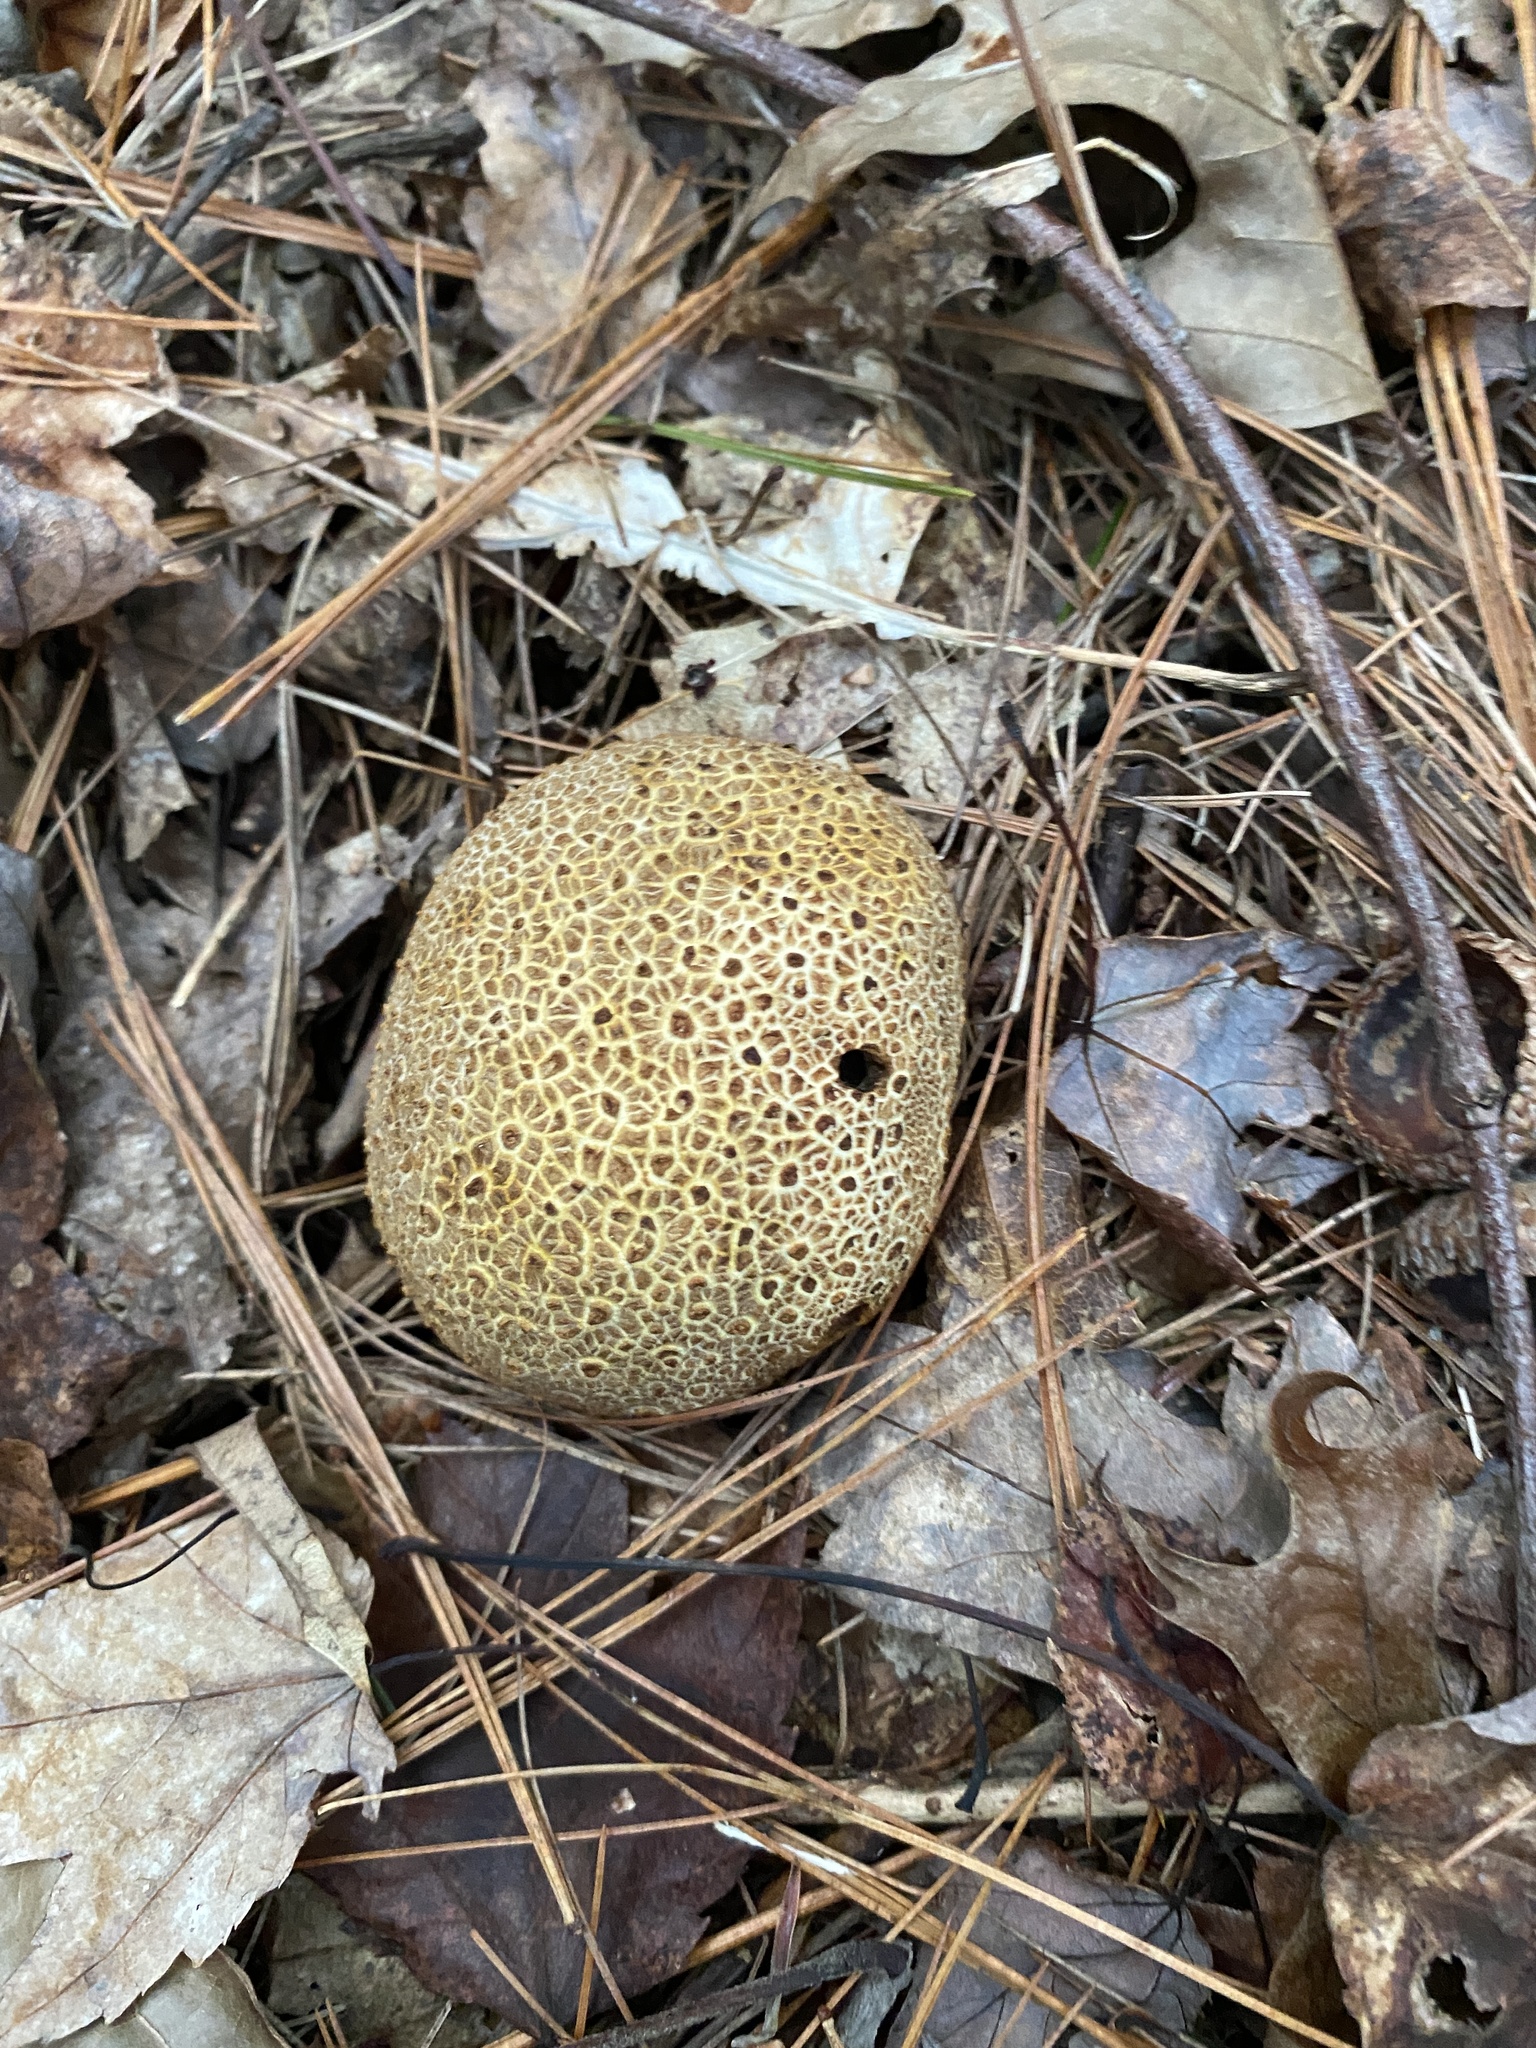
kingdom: Fungi
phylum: Basidiomycota
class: Agaricomycetes
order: Boletales
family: Sclerodermataceae
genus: Scleroderma
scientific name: Scleroderma citrinum
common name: Common earthball
